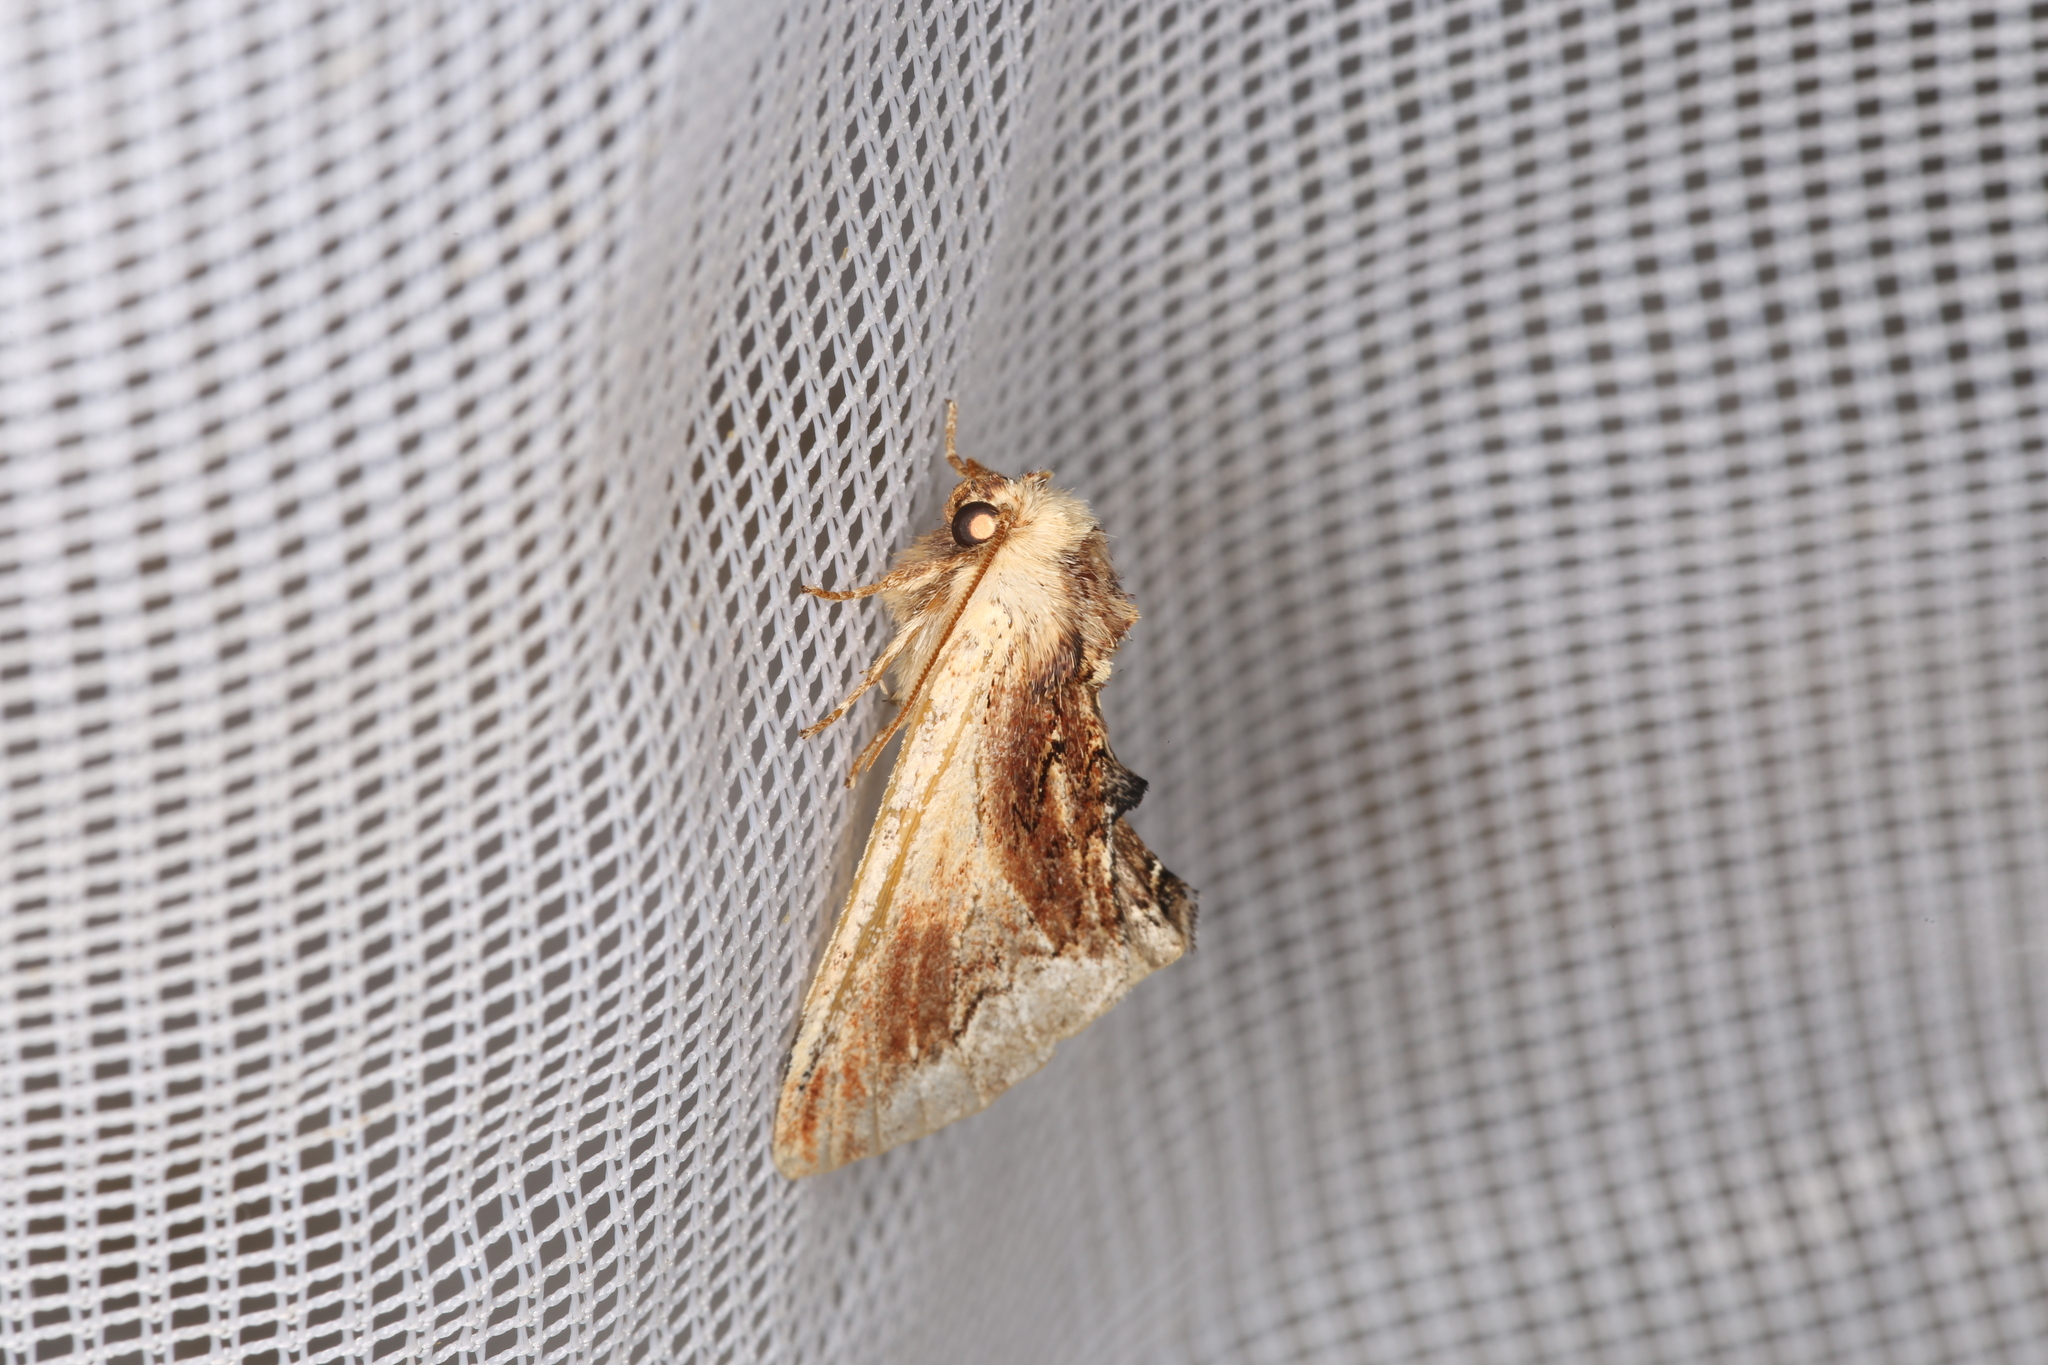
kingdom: Animalia
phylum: Arthropoda
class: Insecta
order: Lepidoptera
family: Notodontidae
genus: Ptilodon
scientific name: Ptilodon cucullina
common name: Maple prominent
